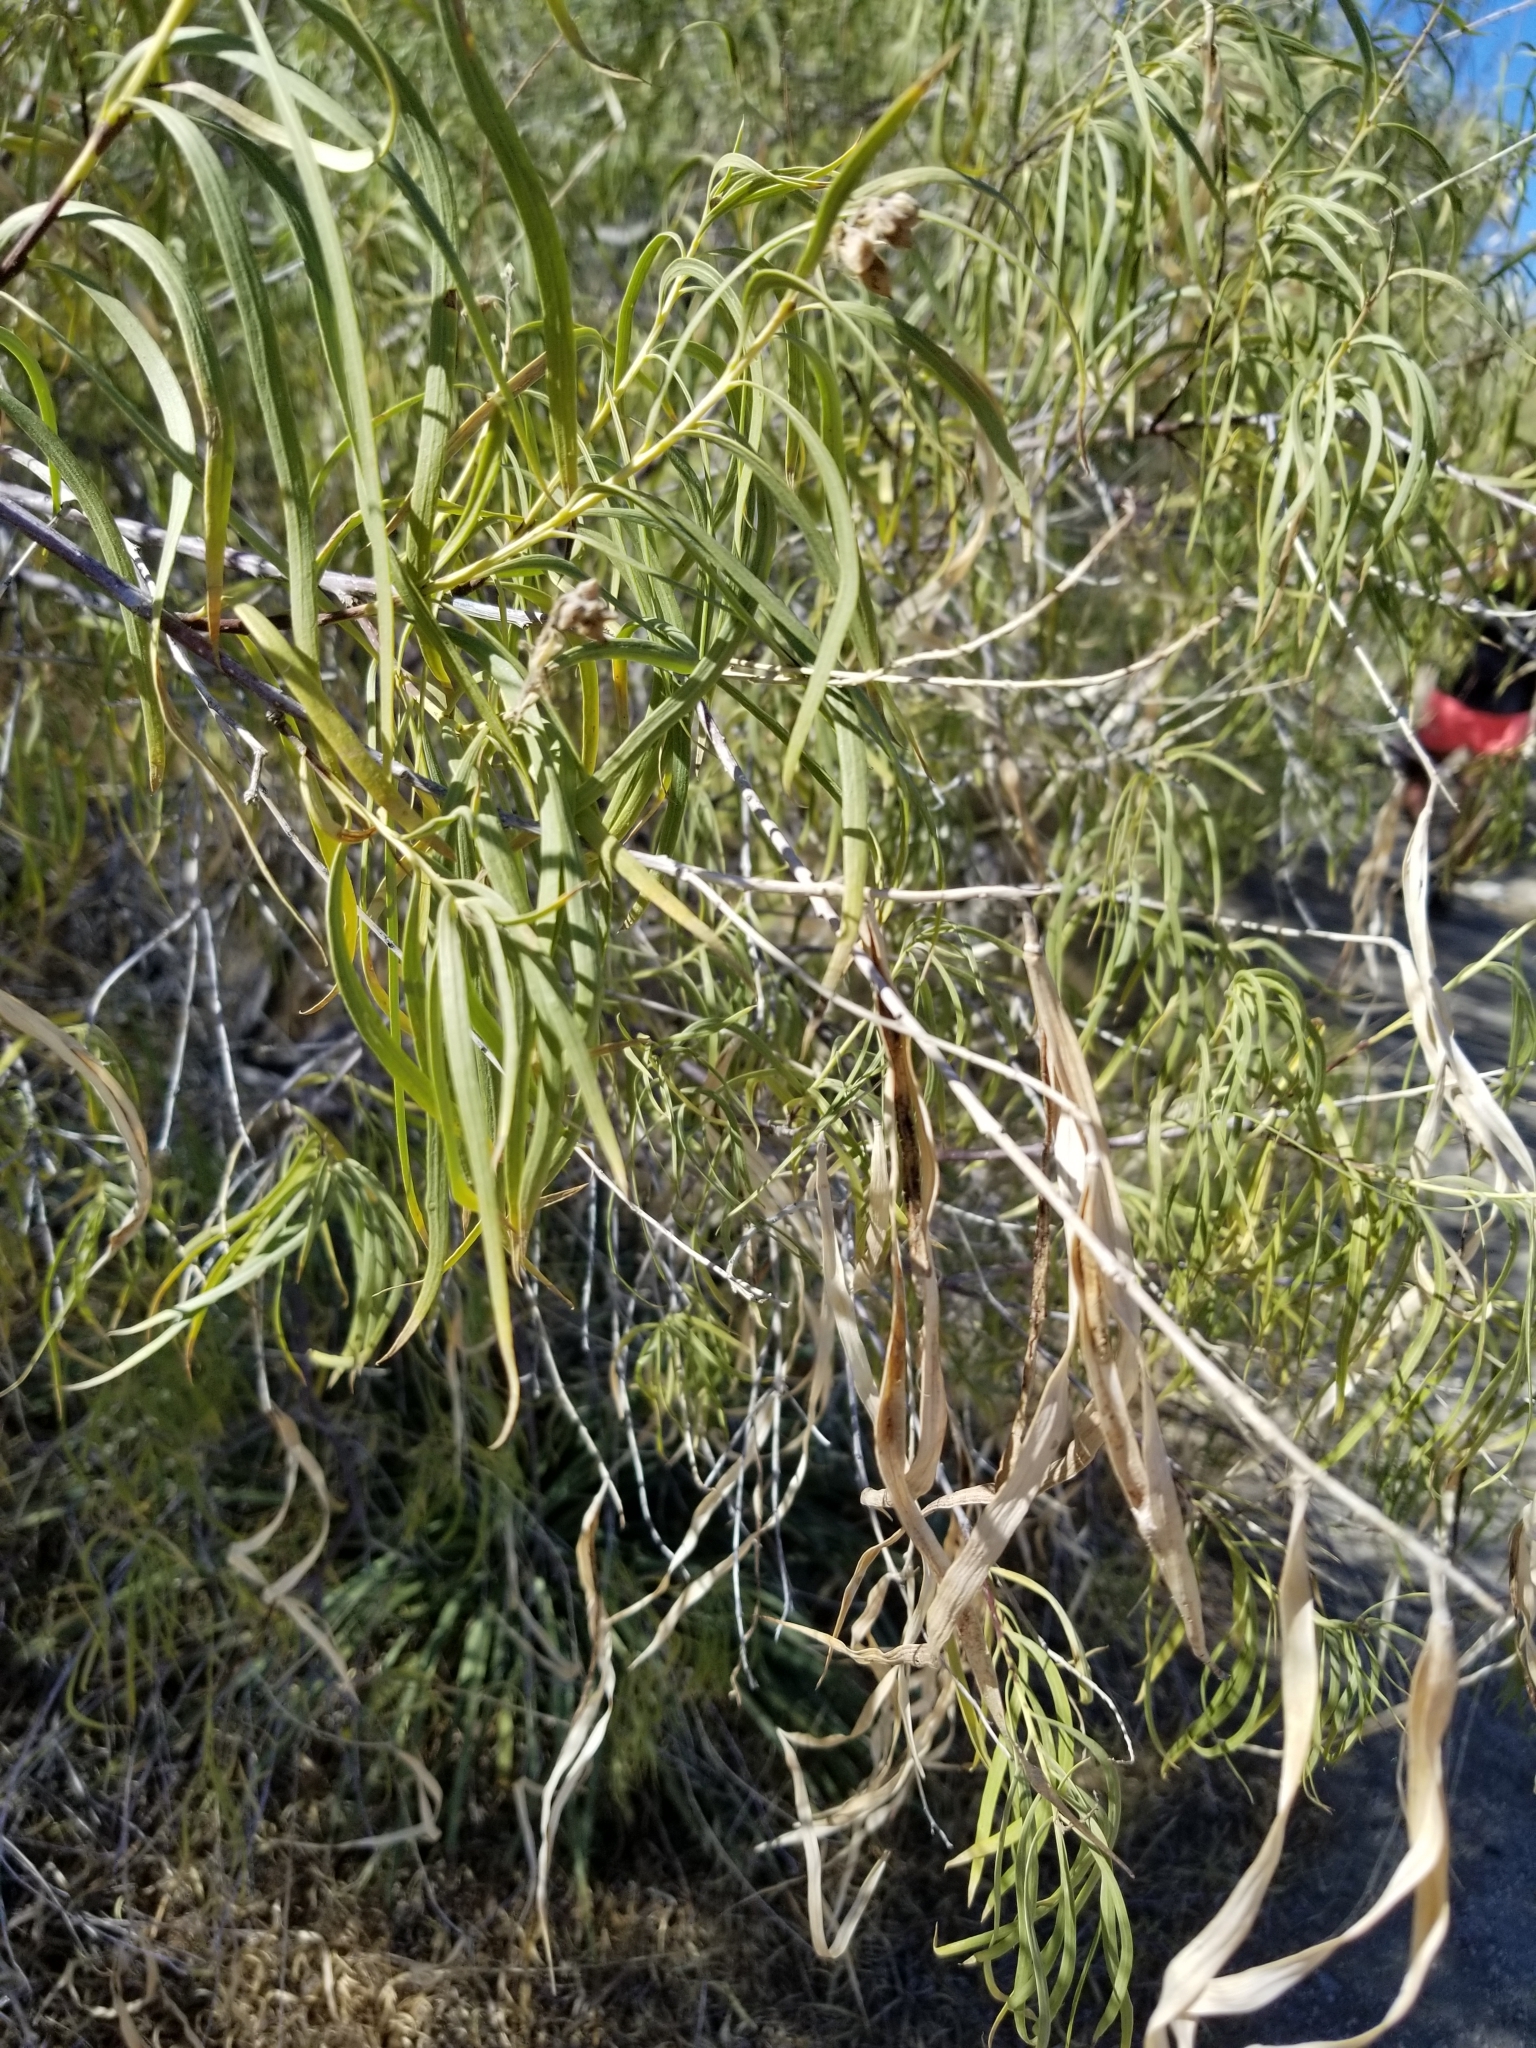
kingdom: Plantae
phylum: Tracheophyta
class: Magnoliopsida
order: Lamiales
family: Bignoniaceae
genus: Chilopsis
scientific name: Chilopsis linearis
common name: Desert-willow
